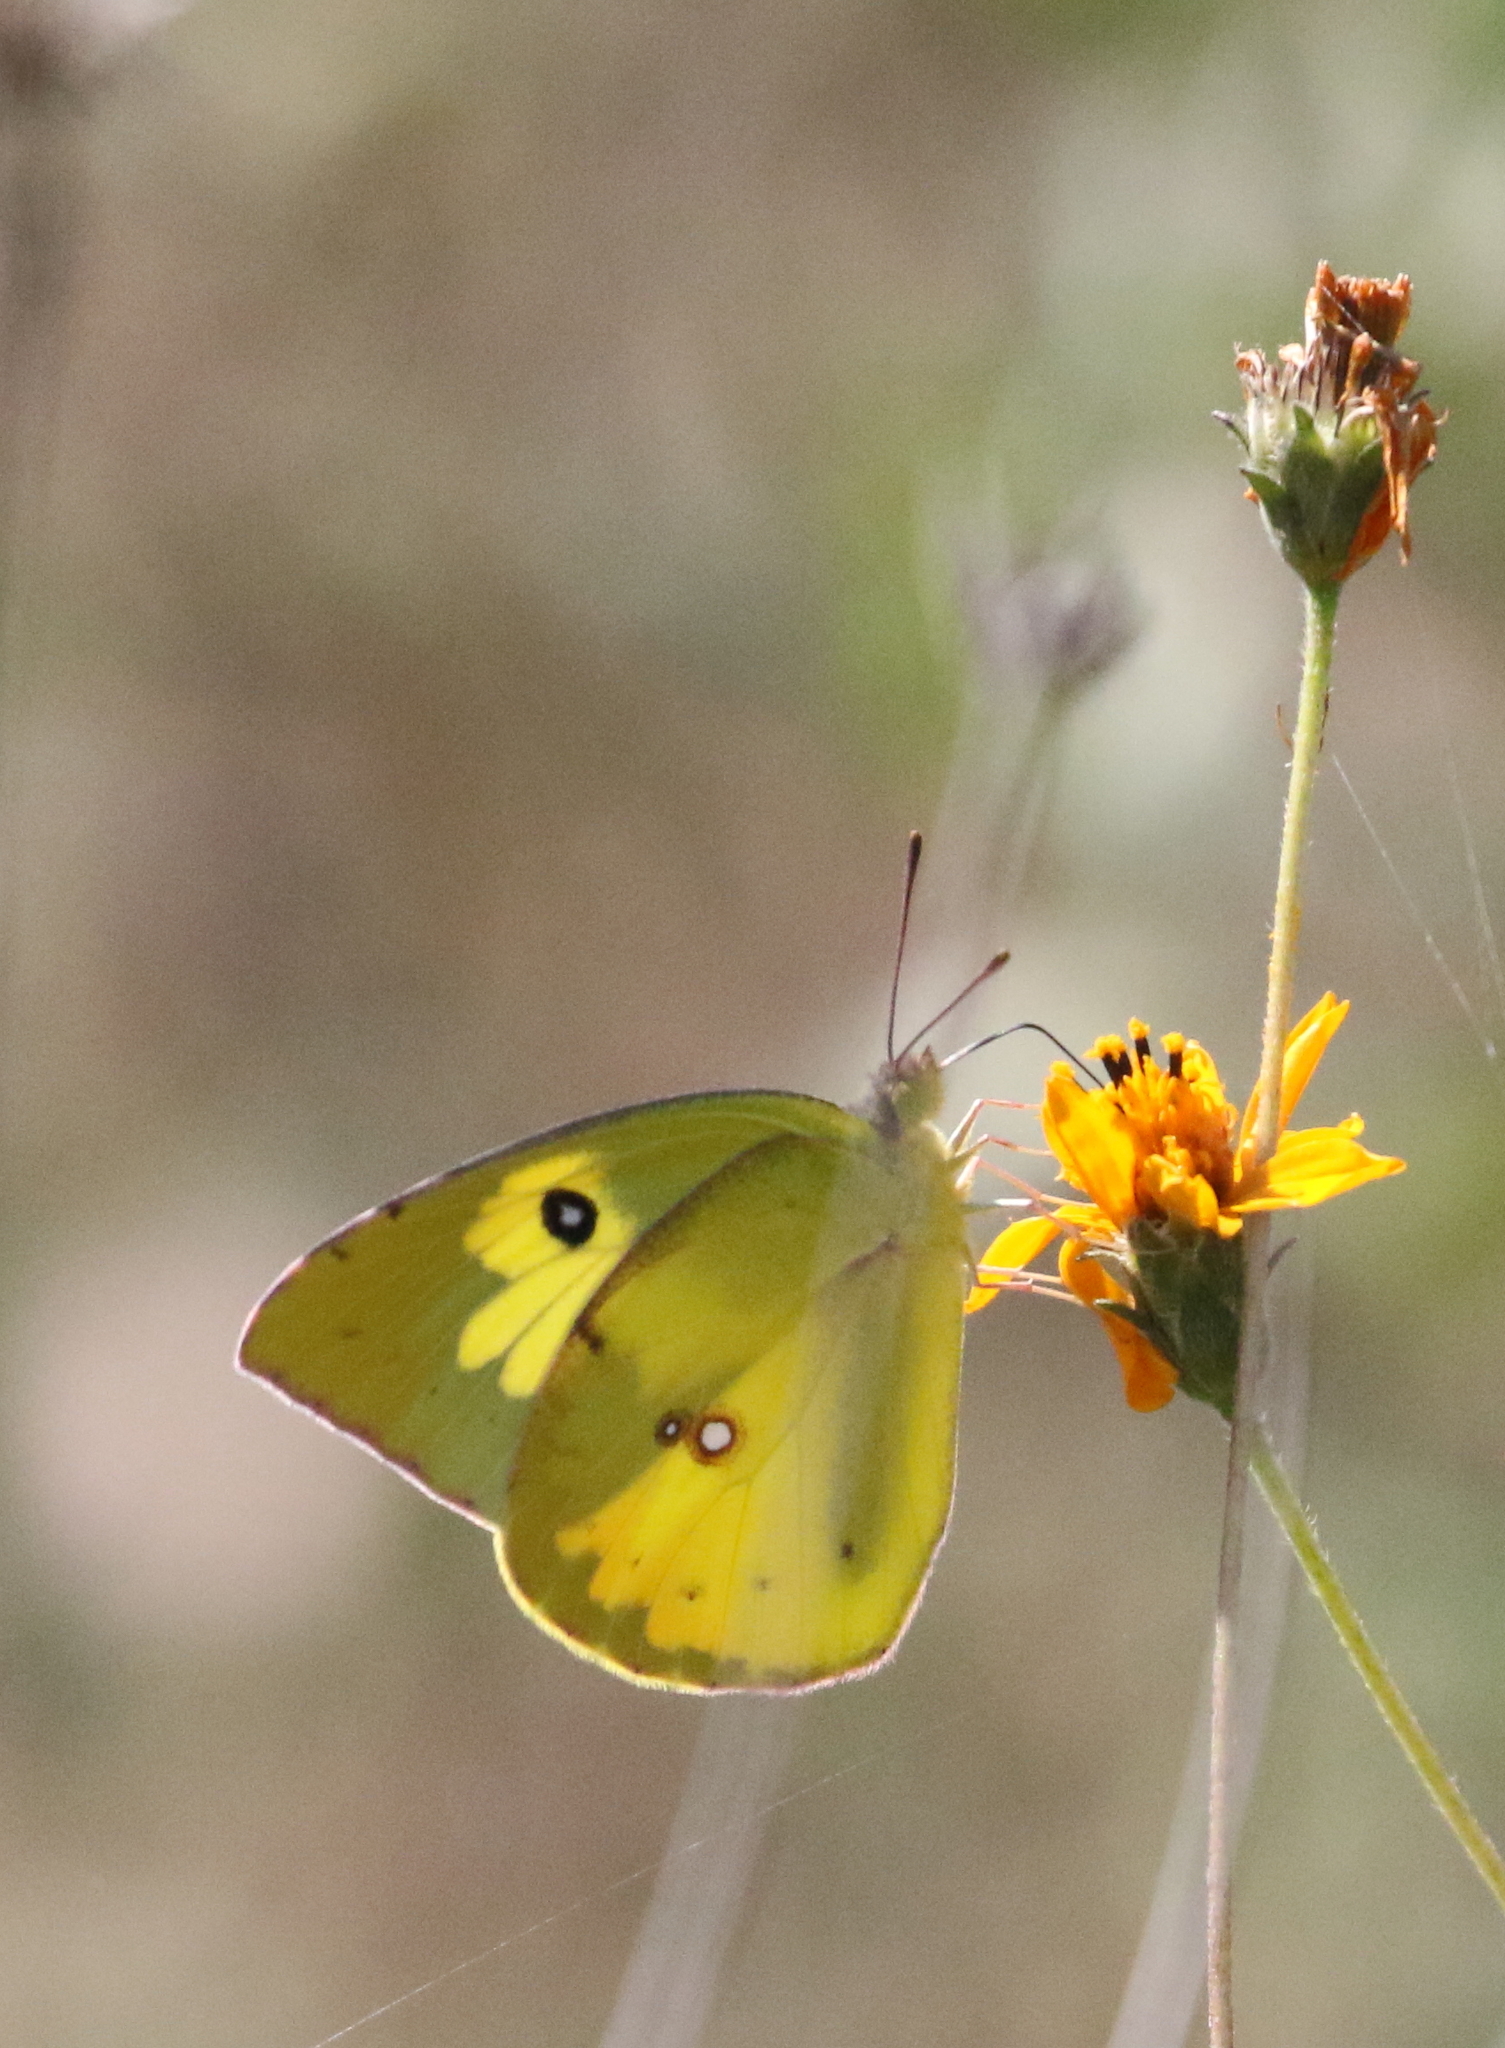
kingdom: Animalia
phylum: Arthropoda
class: Insecta
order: Lepidoptera
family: Pieridae
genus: Zerene
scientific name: Zerene cesonia
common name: Southern dogface
